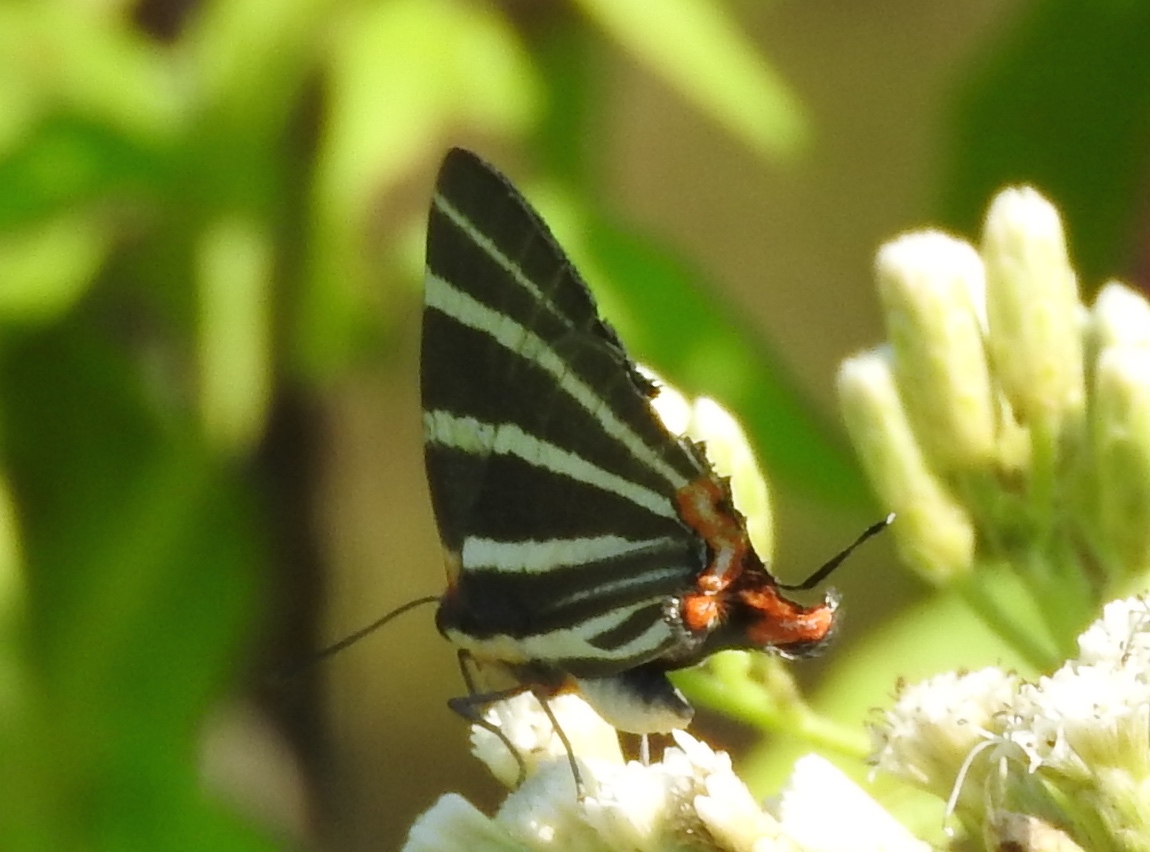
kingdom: Animalia
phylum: Arthropoda
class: Insecta
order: Lepidoptera
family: Lycaenidae
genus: Thecla
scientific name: Thecla bathildis
